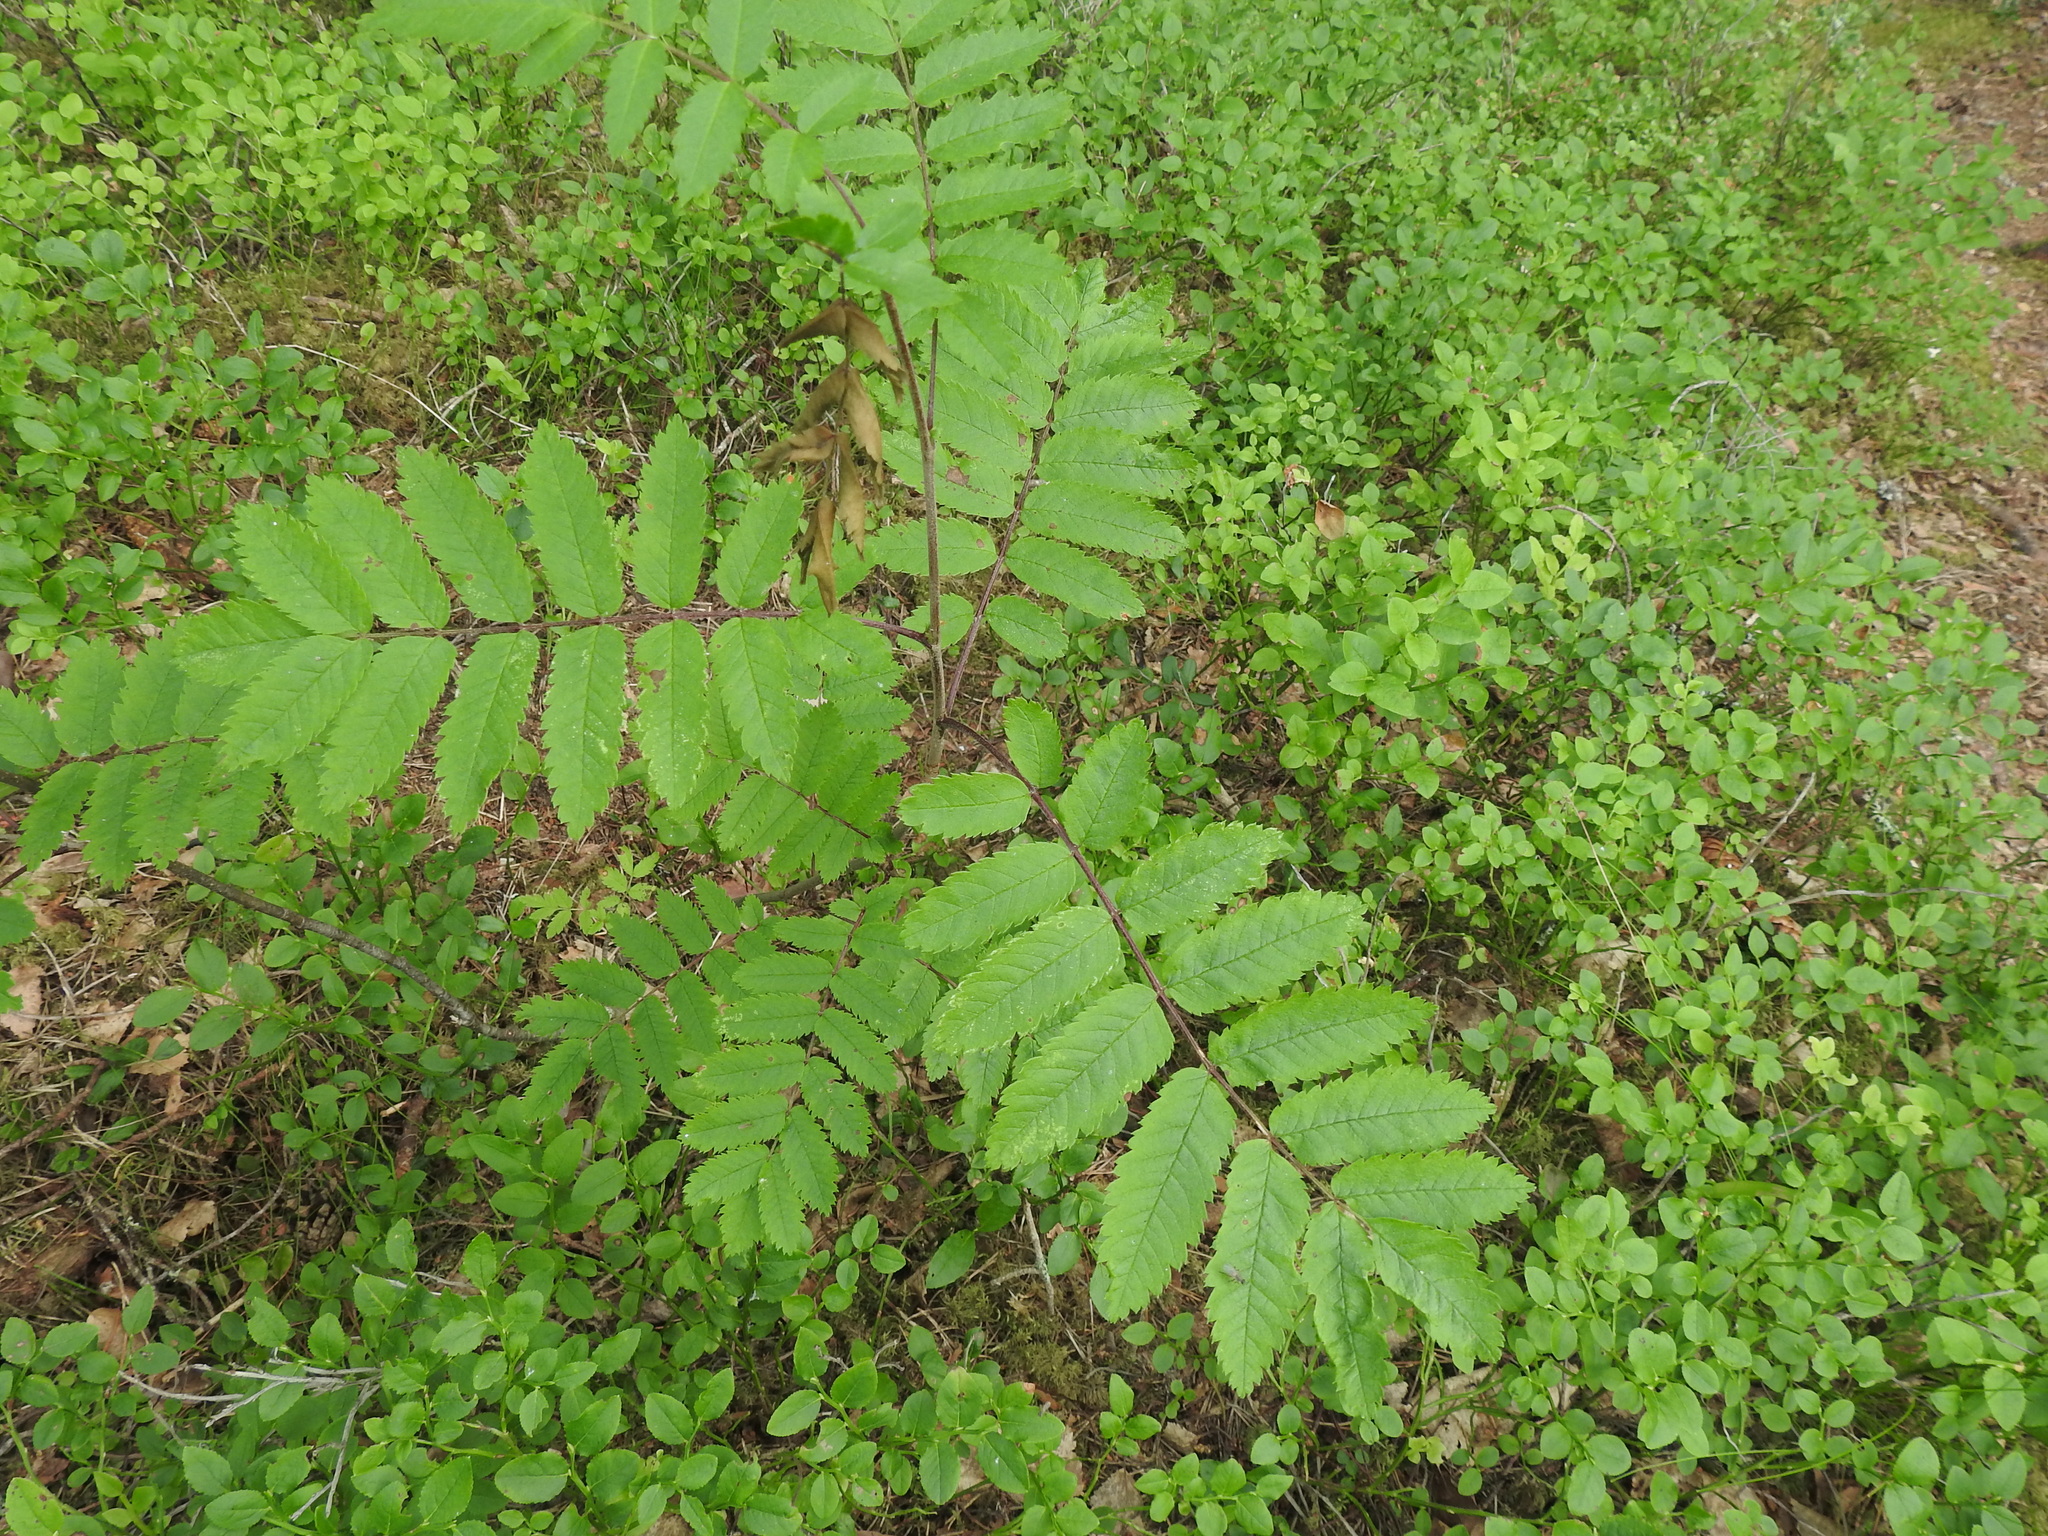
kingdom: Plantae
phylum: Tracheophyta
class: Magnoliopsida
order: Rosales
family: Rosaceae
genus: Sorbus
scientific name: Sorbus aucuparia
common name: Rowan
